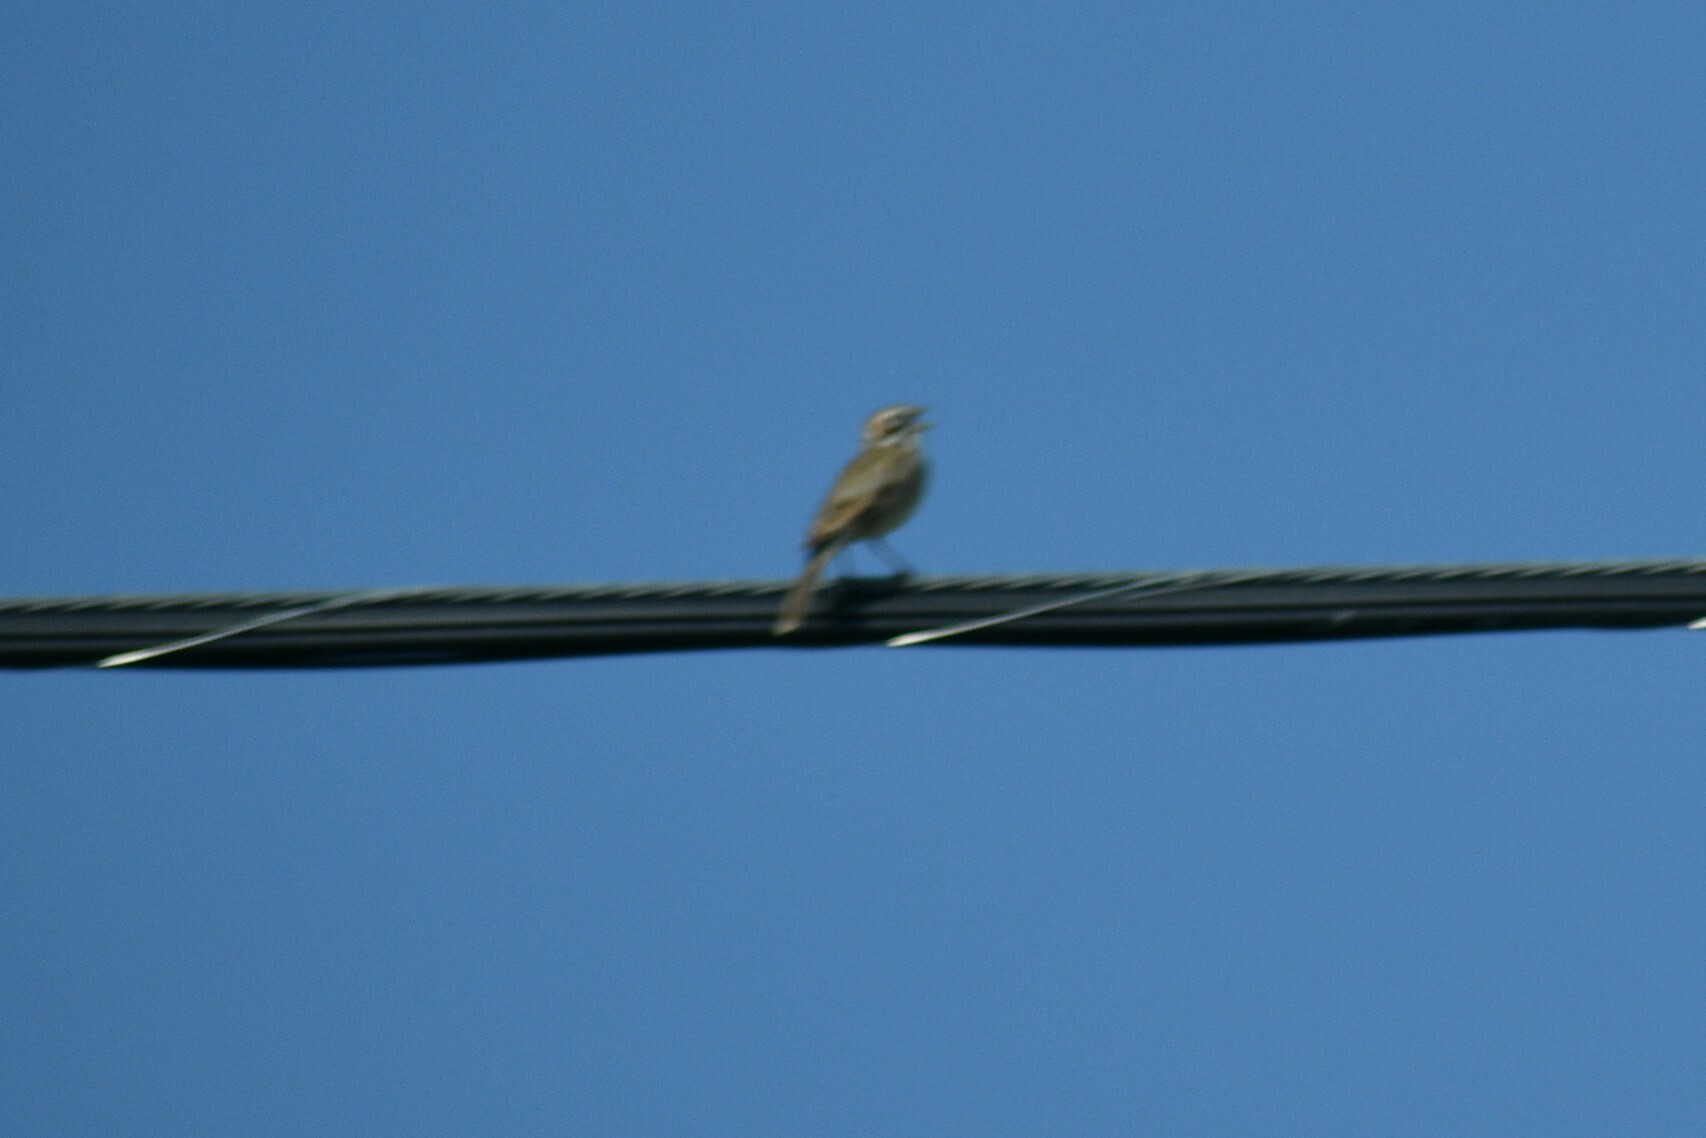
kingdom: Animalia
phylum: Chordata
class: Aves
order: Passeriformes
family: Passerellidae
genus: Chondestes
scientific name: Chondestes grammacus
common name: Lark sparrow
